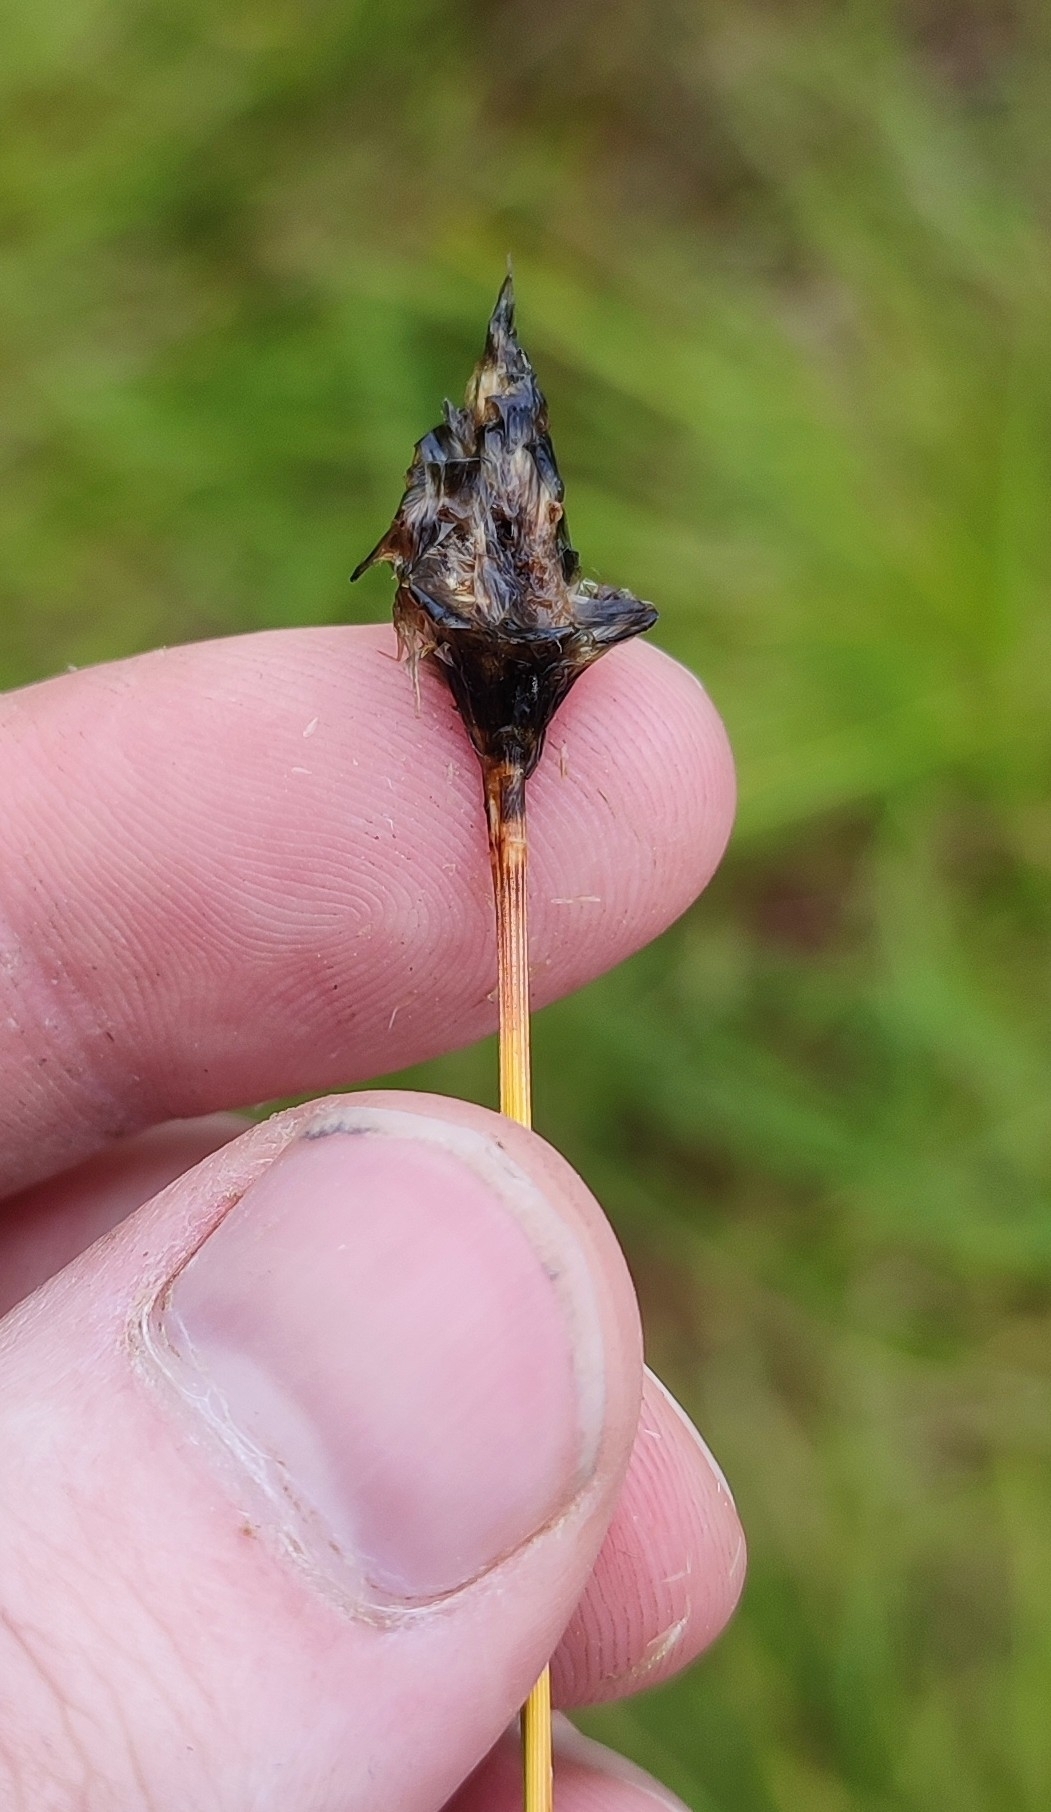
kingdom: Plantae
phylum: Tracheophyta
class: Liliopsida
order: Poales
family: Cyperaceae
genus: Eriophorum
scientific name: Eriophorum vaginatum
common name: Hare's-tail cottongrass
